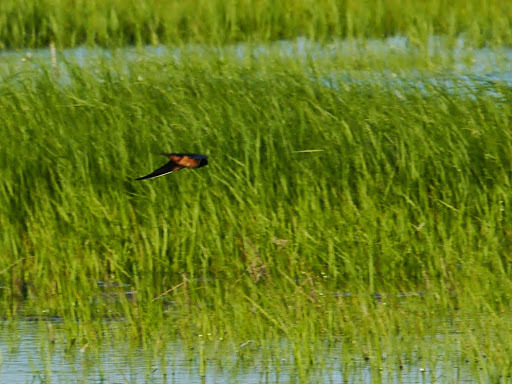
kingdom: Animalia
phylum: Chordata
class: Aves
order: Passeriformes
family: Hirundinidae
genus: Hirundo
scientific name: Hirundo rustica
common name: Barn swallow
